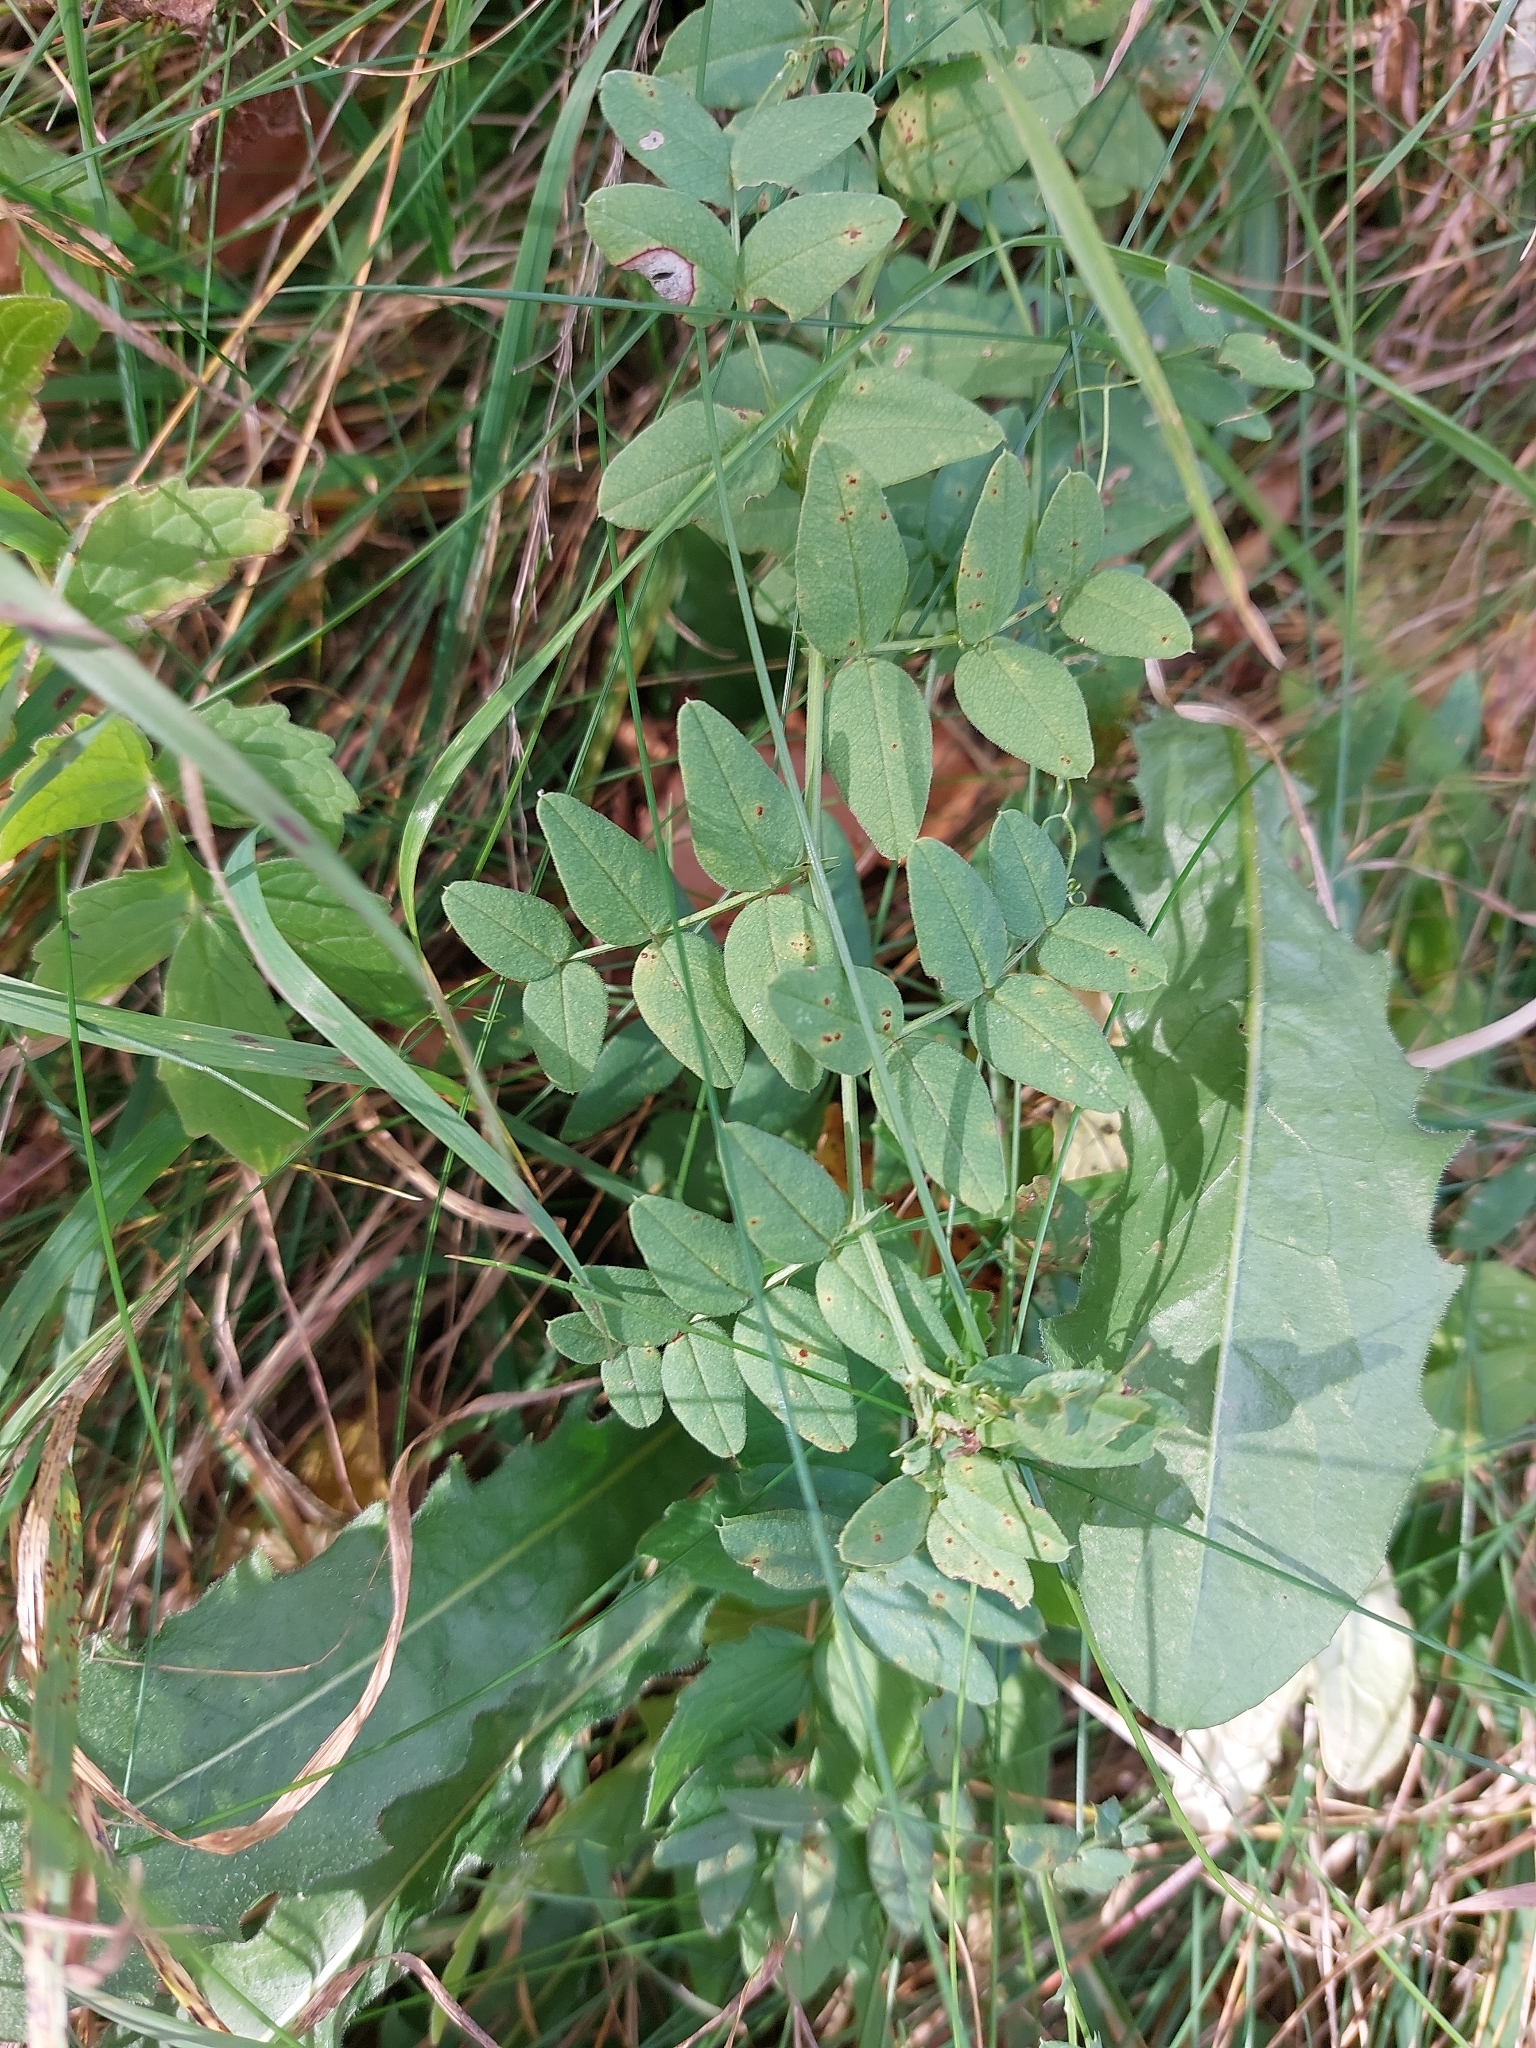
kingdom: Plantae
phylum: Tracheophyta
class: Magnoliopsida
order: Fabales
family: Fabaceae
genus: Vicia
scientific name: Vicia sepium
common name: Bush vetch
